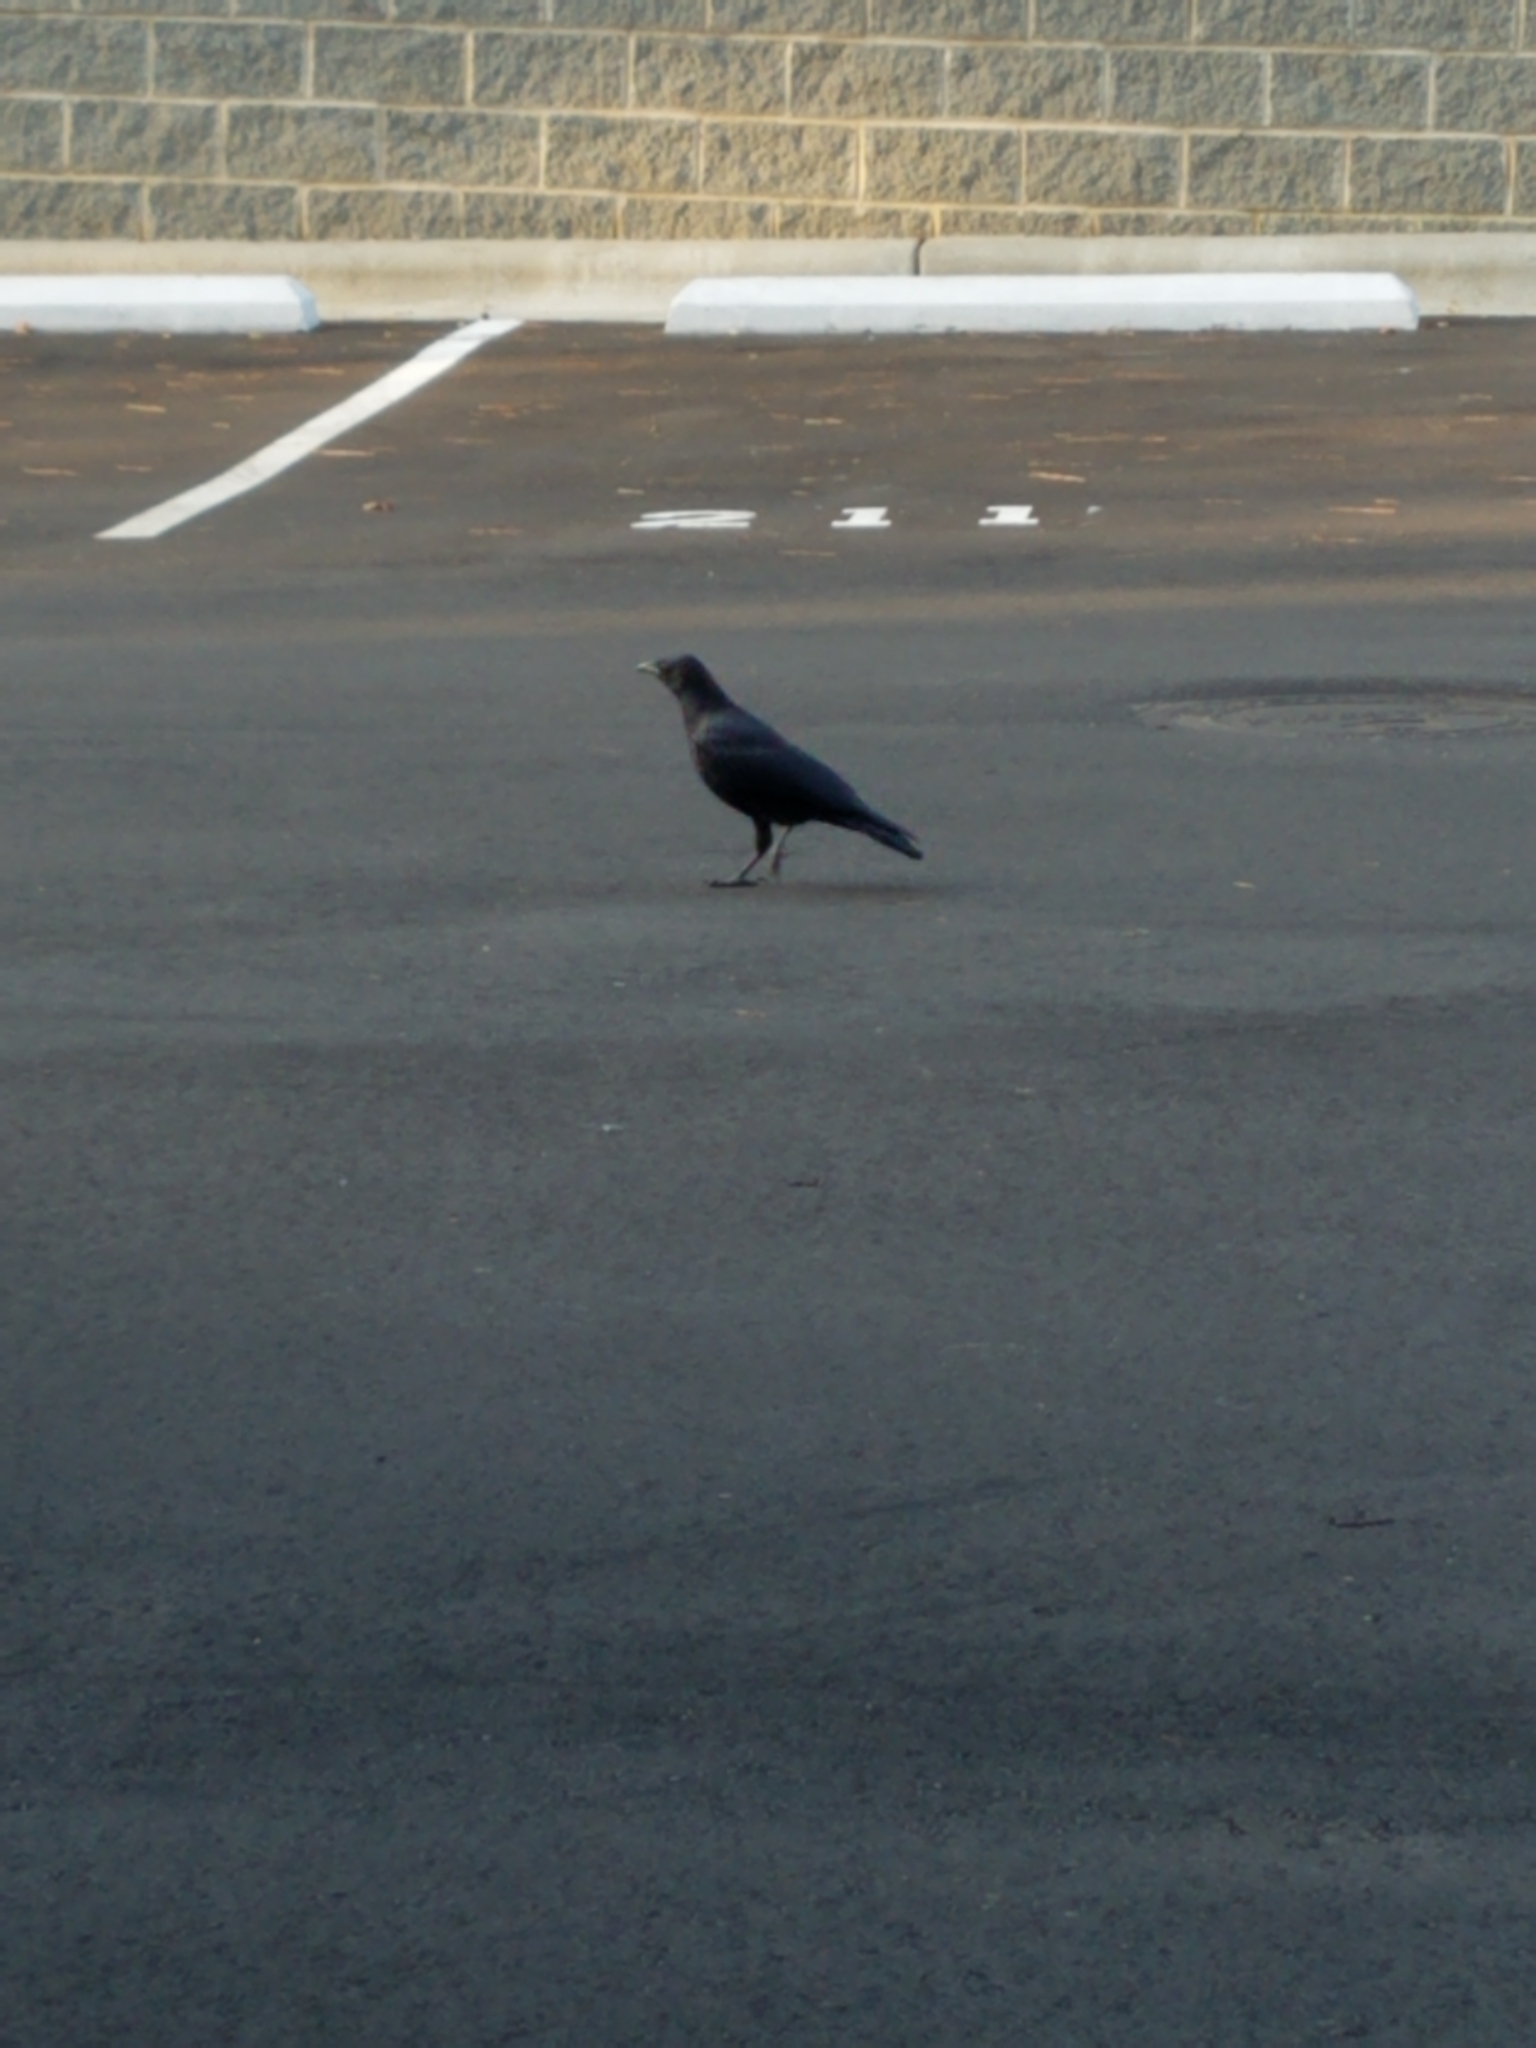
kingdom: Animalia
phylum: Chordata
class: Aves
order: Passeriformes
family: Corvidae
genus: Corvus
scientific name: Corvus brachyrhynchos
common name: American crow
